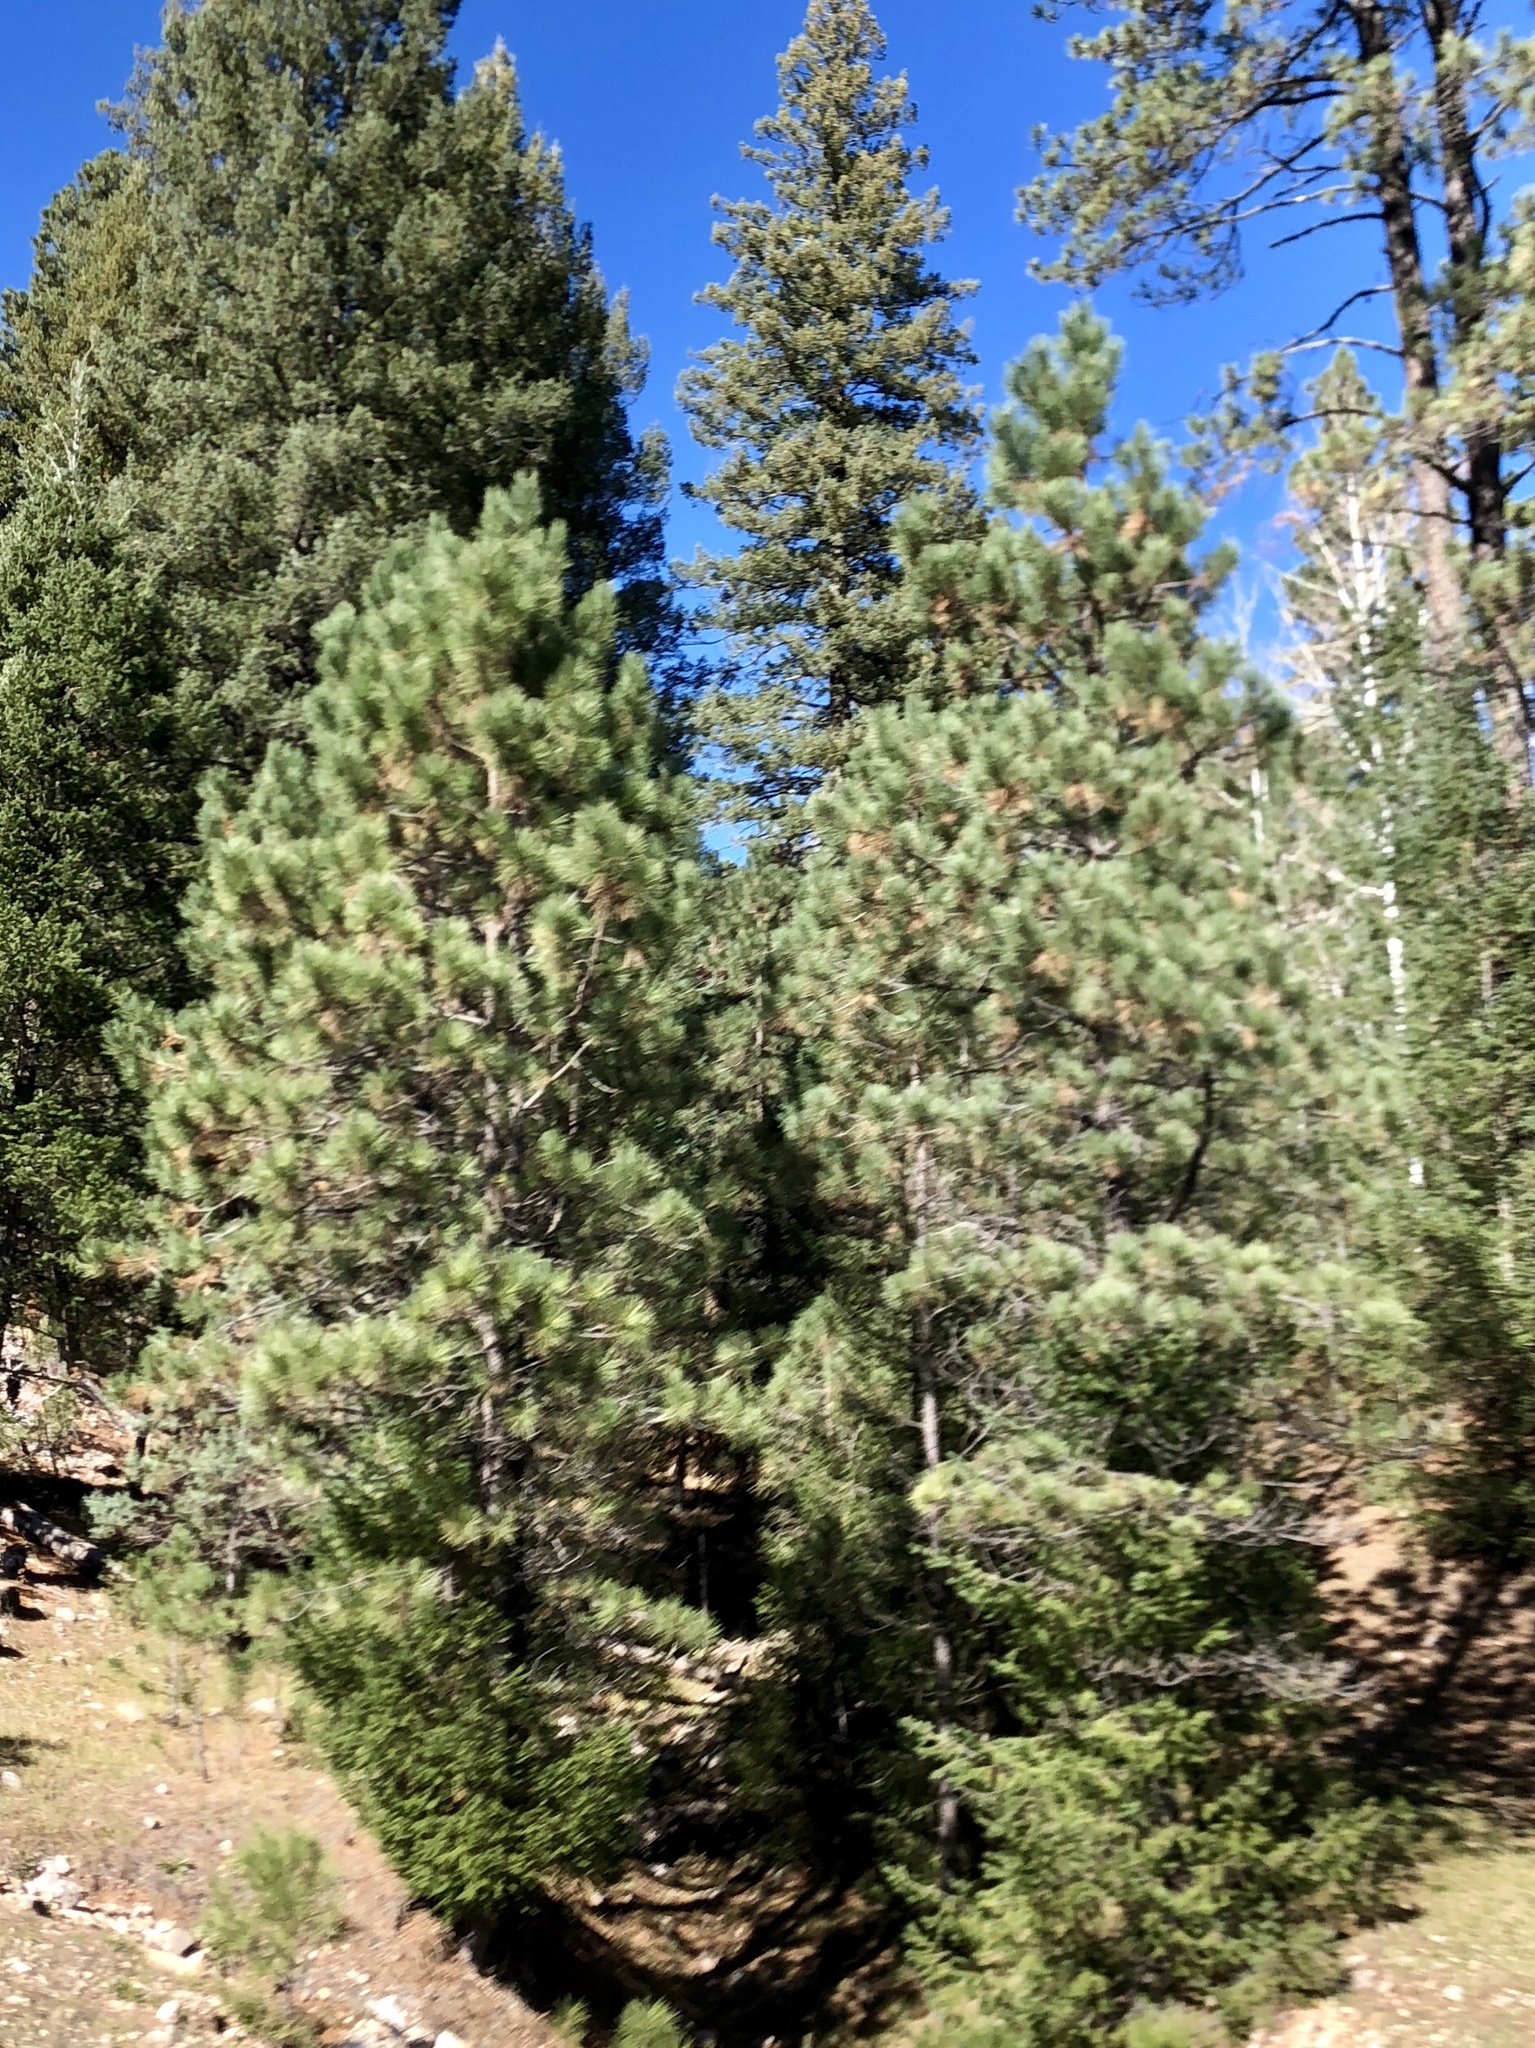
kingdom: Plantae
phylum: Tracheophyta
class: Pinopsida
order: Pinales
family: Pinaceae
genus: Pinus
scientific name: Pinus ponderosa
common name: Western yellow-pine
